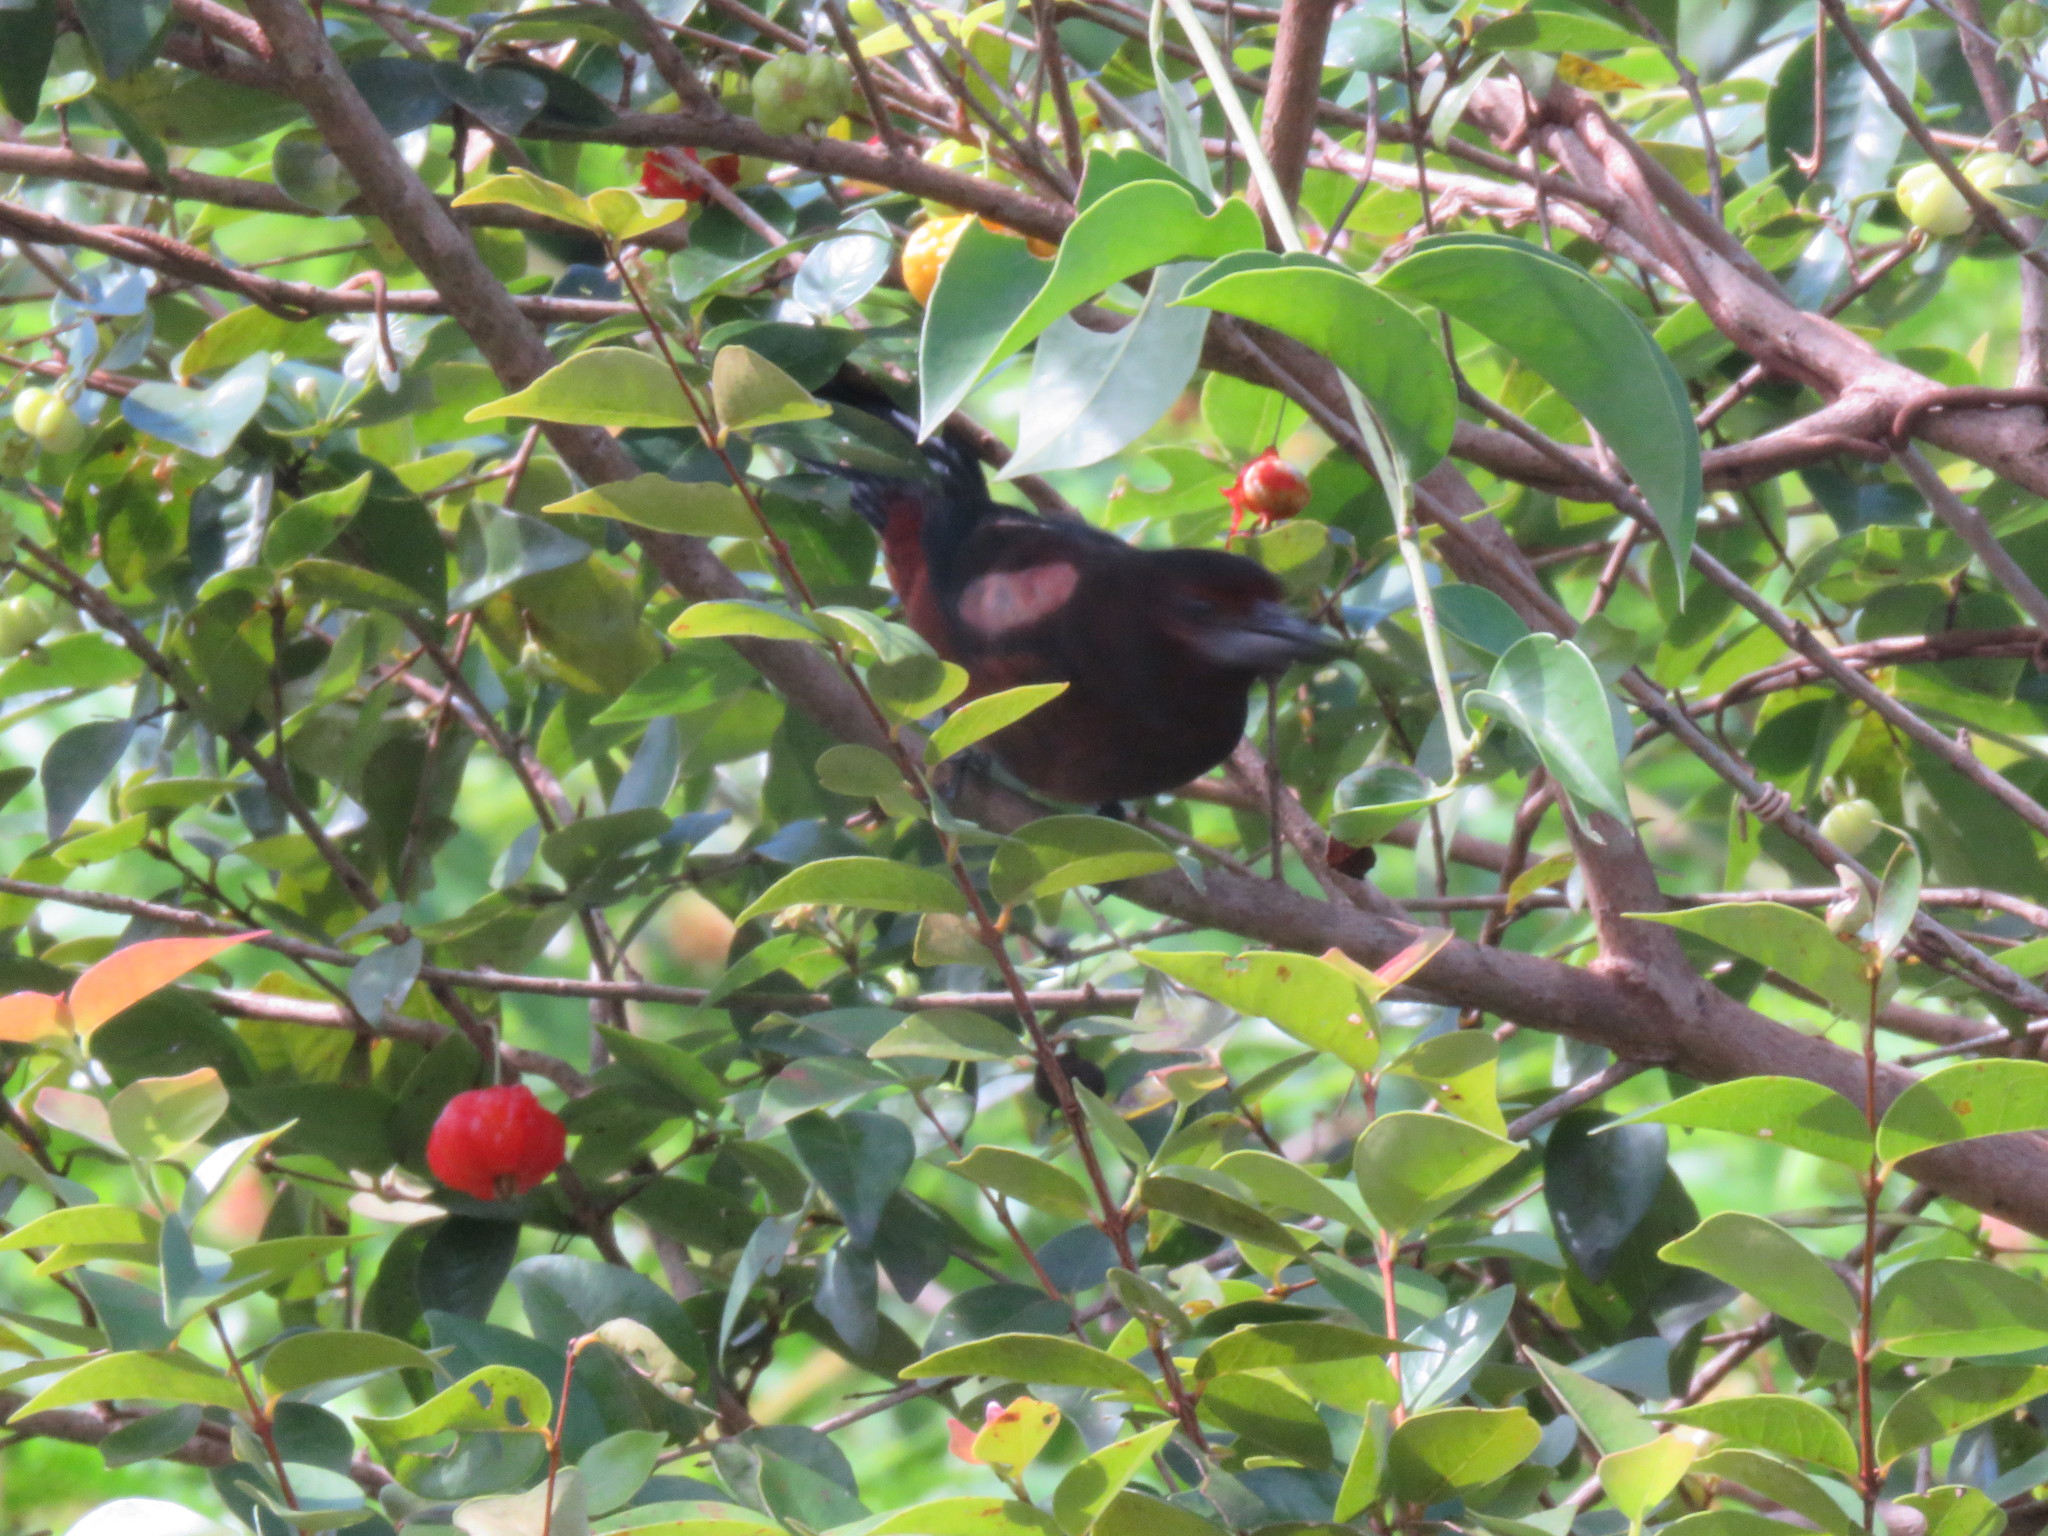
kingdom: Animalia
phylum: Chordata
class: Aves
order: Passeriformes
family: Thraupidae
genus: Ramphocelus
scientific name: Ramphocelus carbo
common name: Silver-beaked tanager
